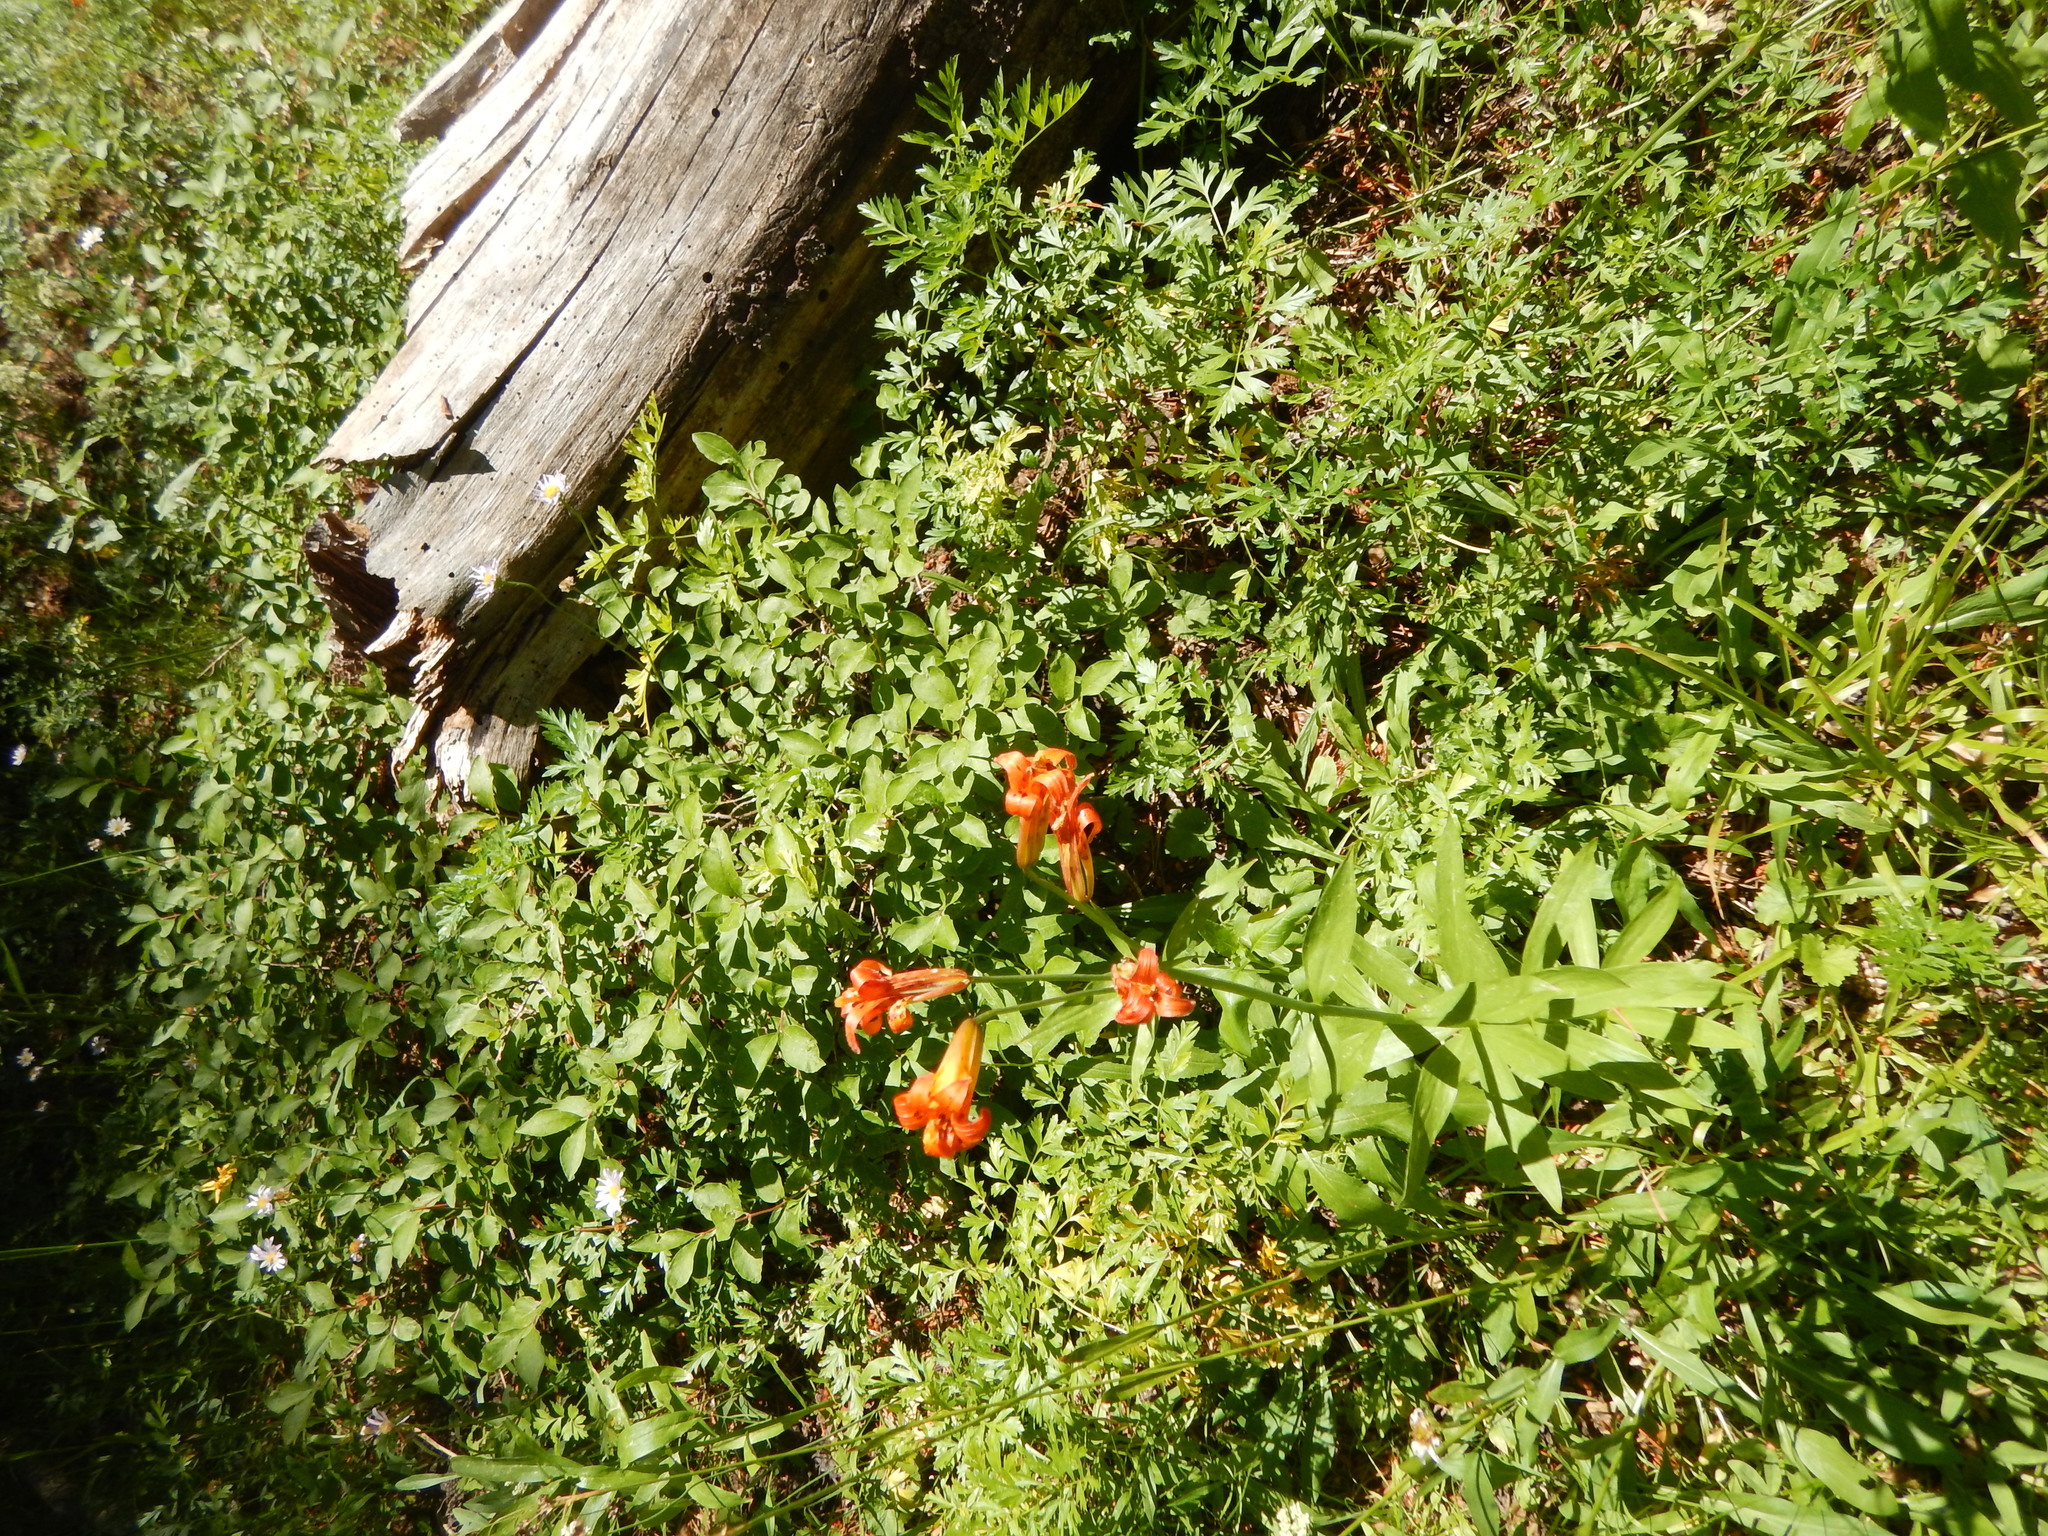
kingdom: Plantae
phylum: Tracheophyta
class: Liliopsida
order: Liliales
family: Liliaceae
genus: Lilium
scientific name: Lilium parvum
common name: Alpine lily
